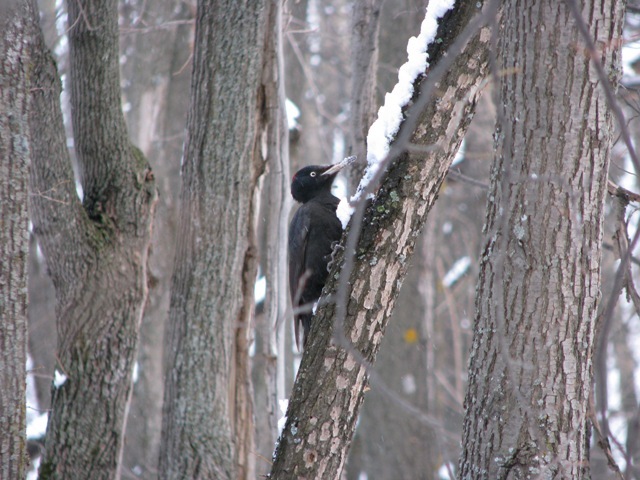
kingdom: Animalia
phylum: Chordata
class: Aves
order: Piciformes
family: Picidae
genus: Dryocopus
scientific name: Dryocopus martius
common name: Black woodpecker
